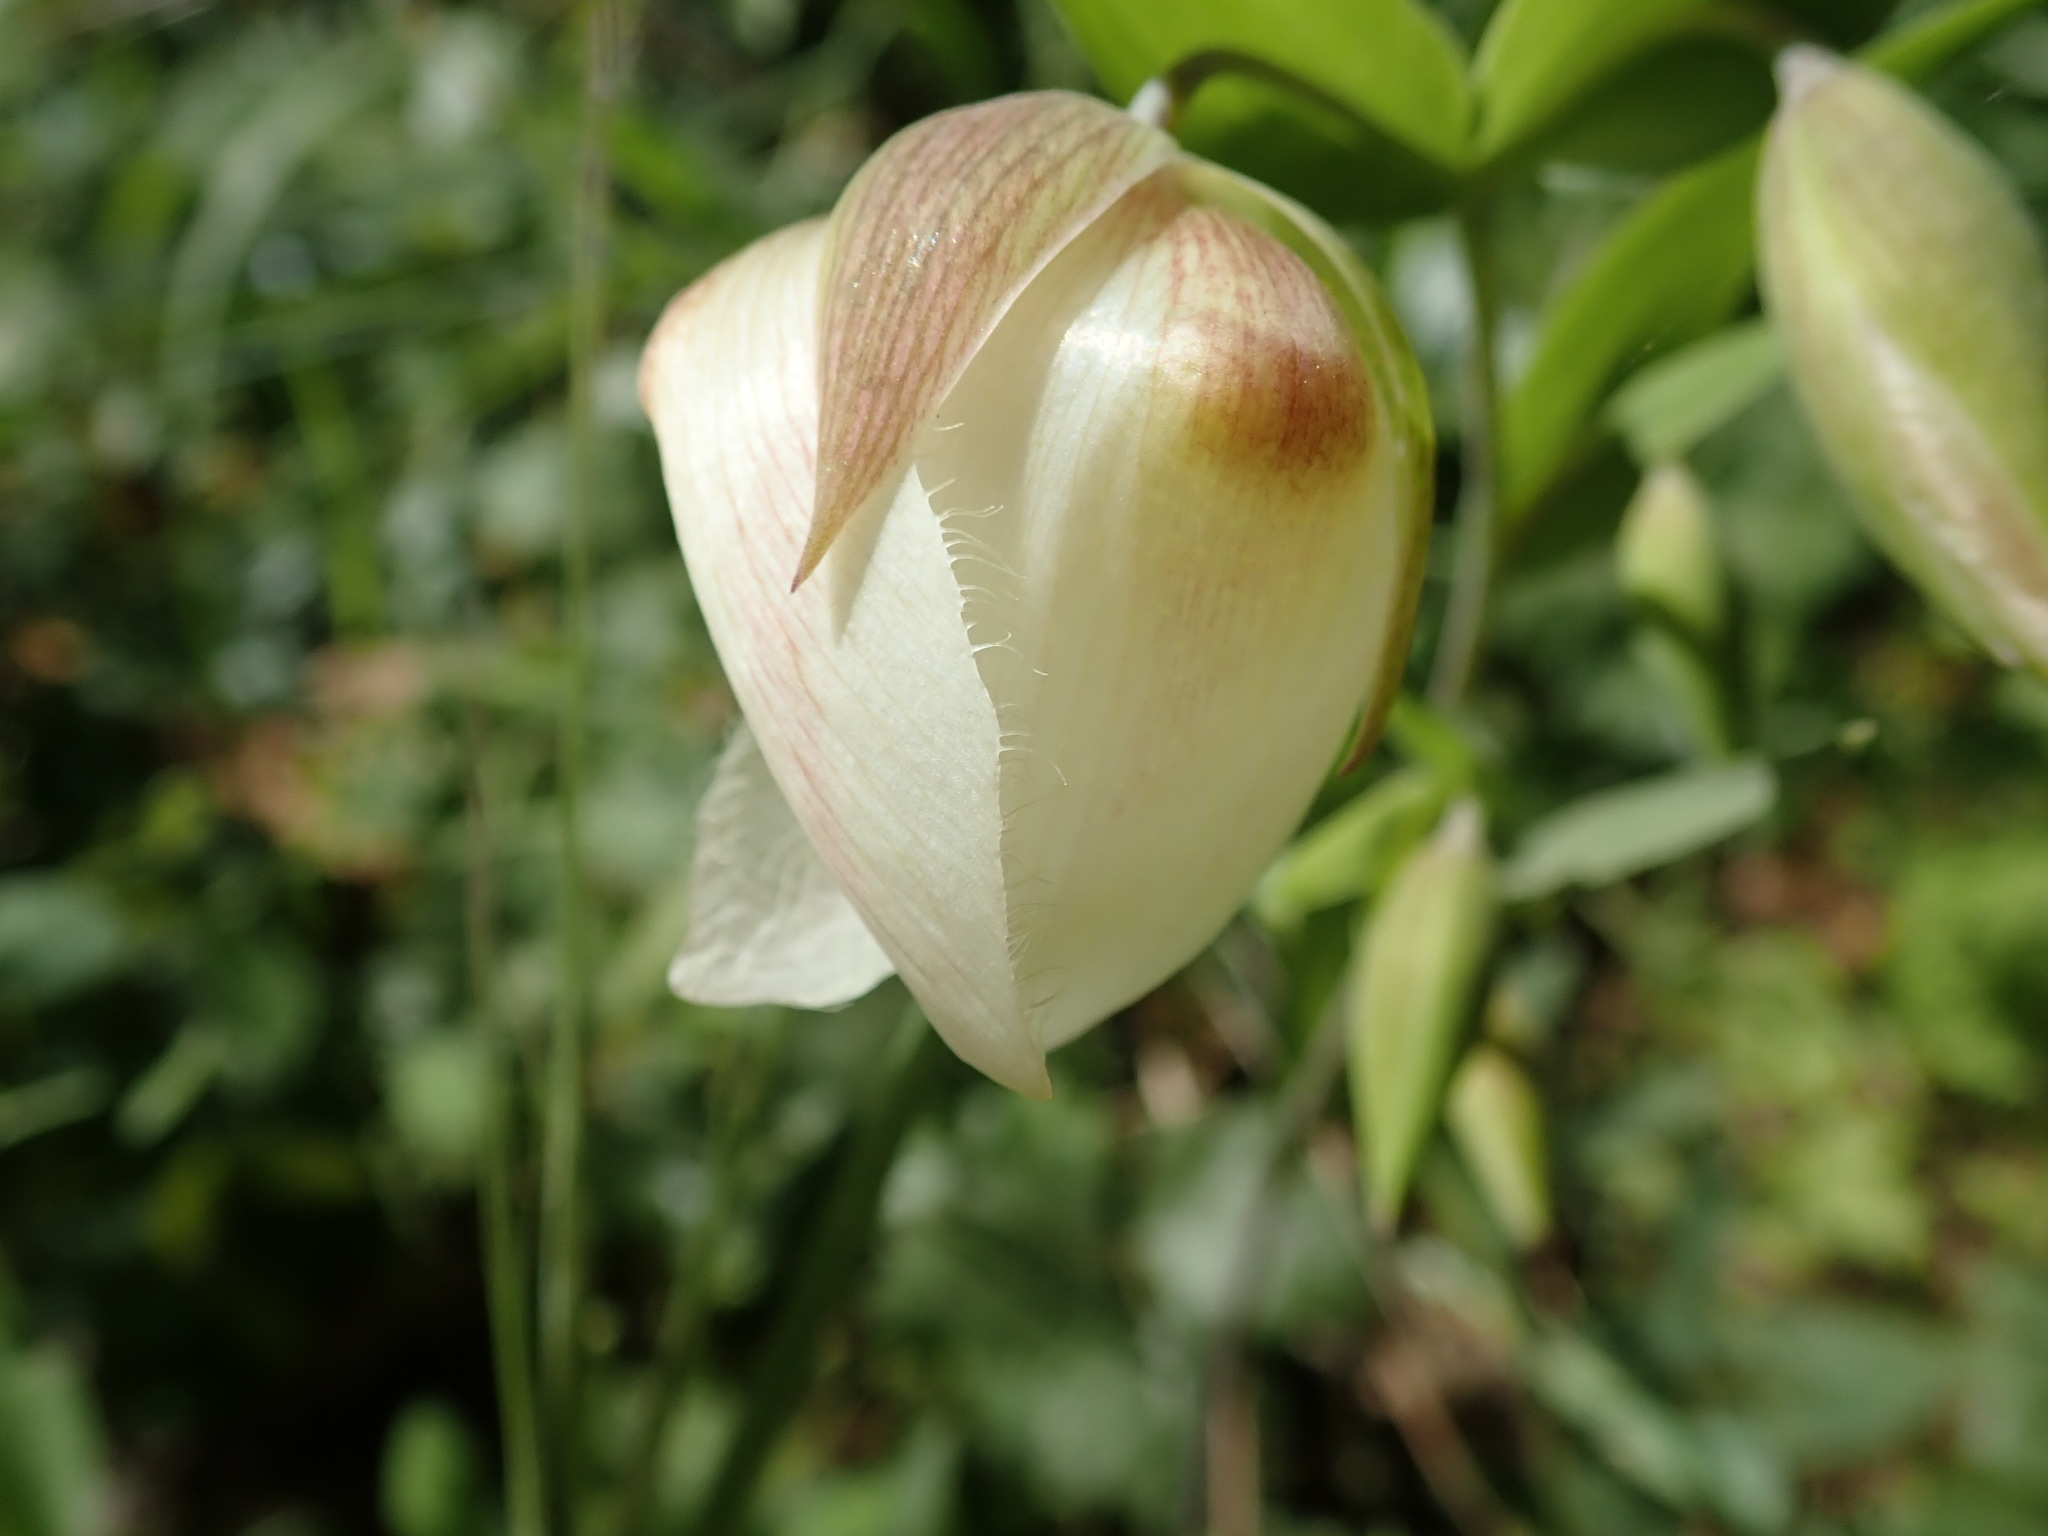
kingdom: Plantae
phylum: Tracheophyta
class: Liliopsida
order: Liliales
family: Liliaceae
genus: Calochortus
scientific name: Calochortus albus
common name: Fairy-lantern
